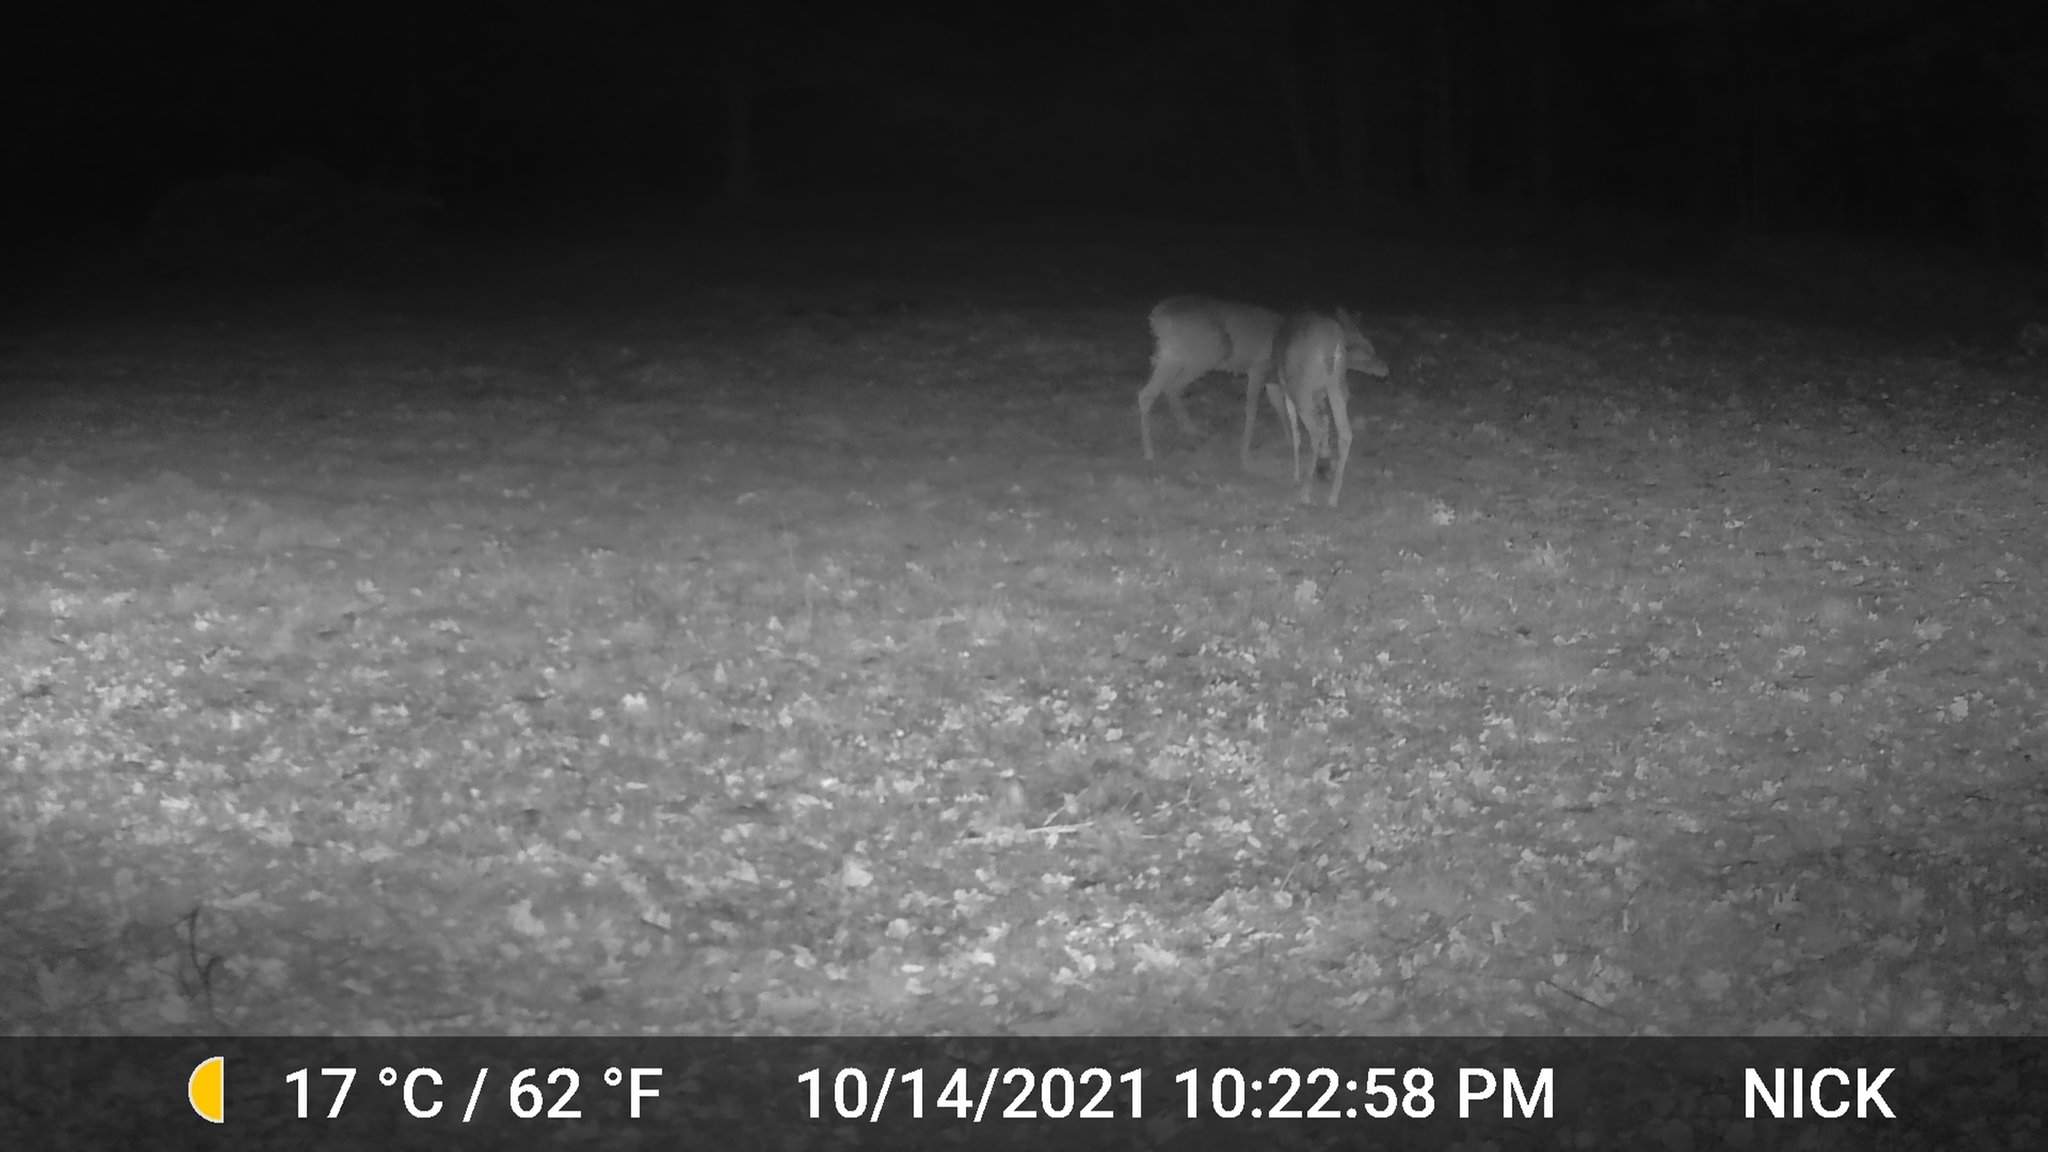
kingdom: Animalia
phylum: Chordata
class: Mammalia
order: Artiodactyla
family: Cervidae
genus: Odocoileus
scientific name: Odocoileus virginianus
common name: White-tailed deer
